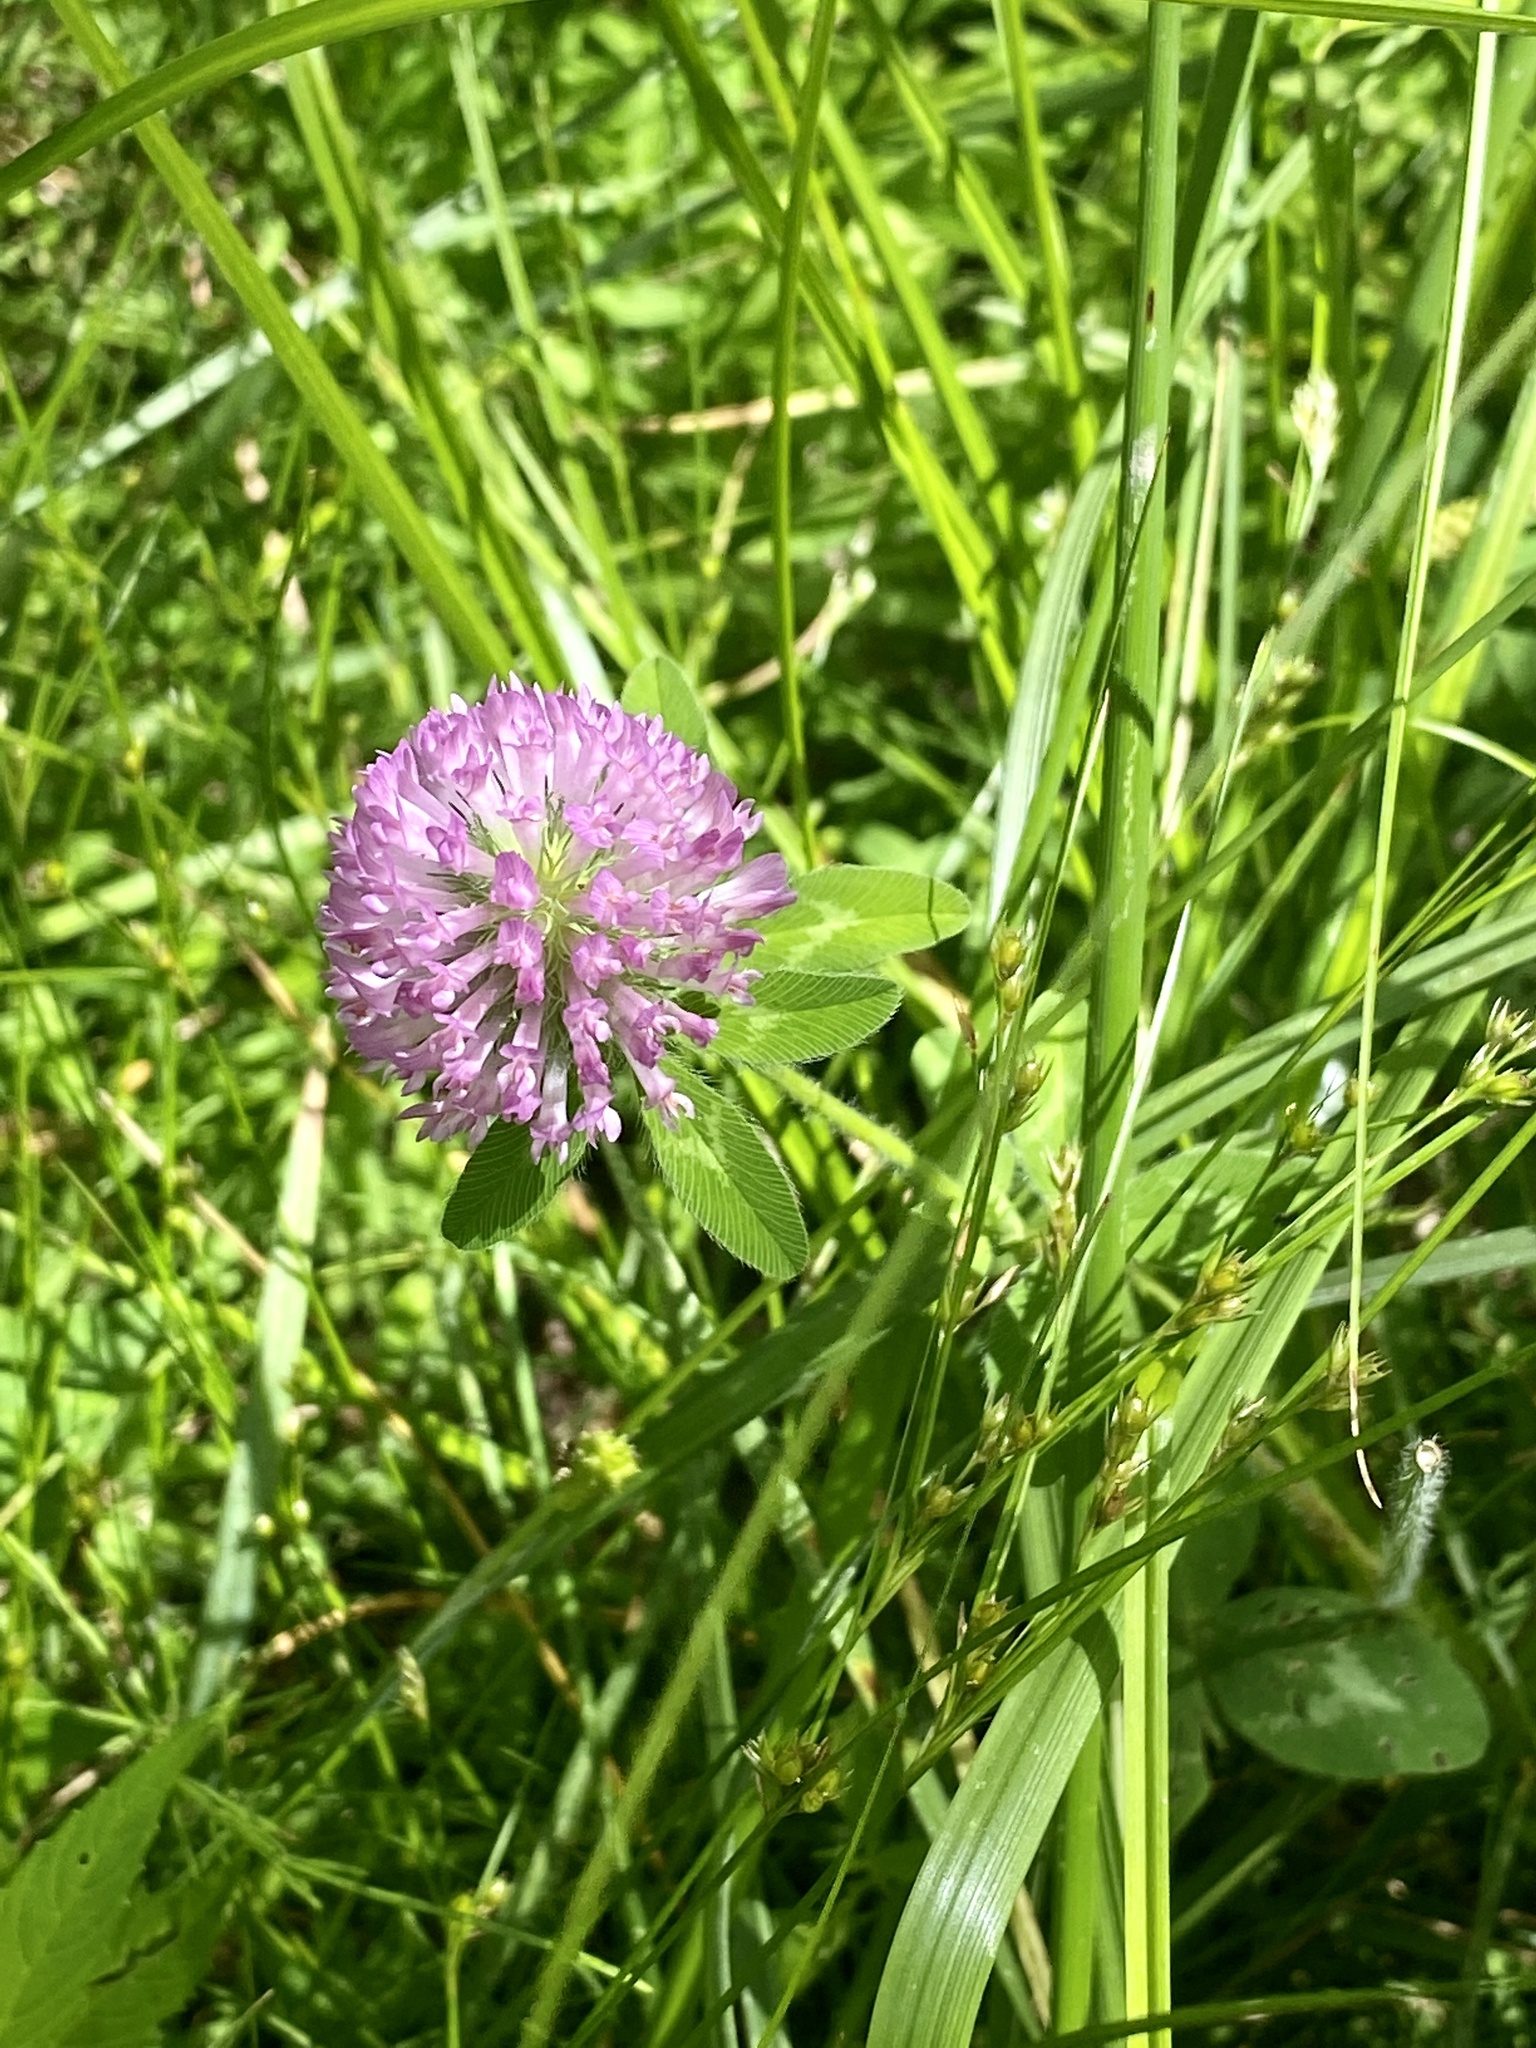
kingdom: Plantae
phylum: Tracheophyta
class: Magnoliopsida
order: Fabales
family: Fabaceae
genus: Trifolium
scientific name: Trifolium pratense
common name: Red clover
